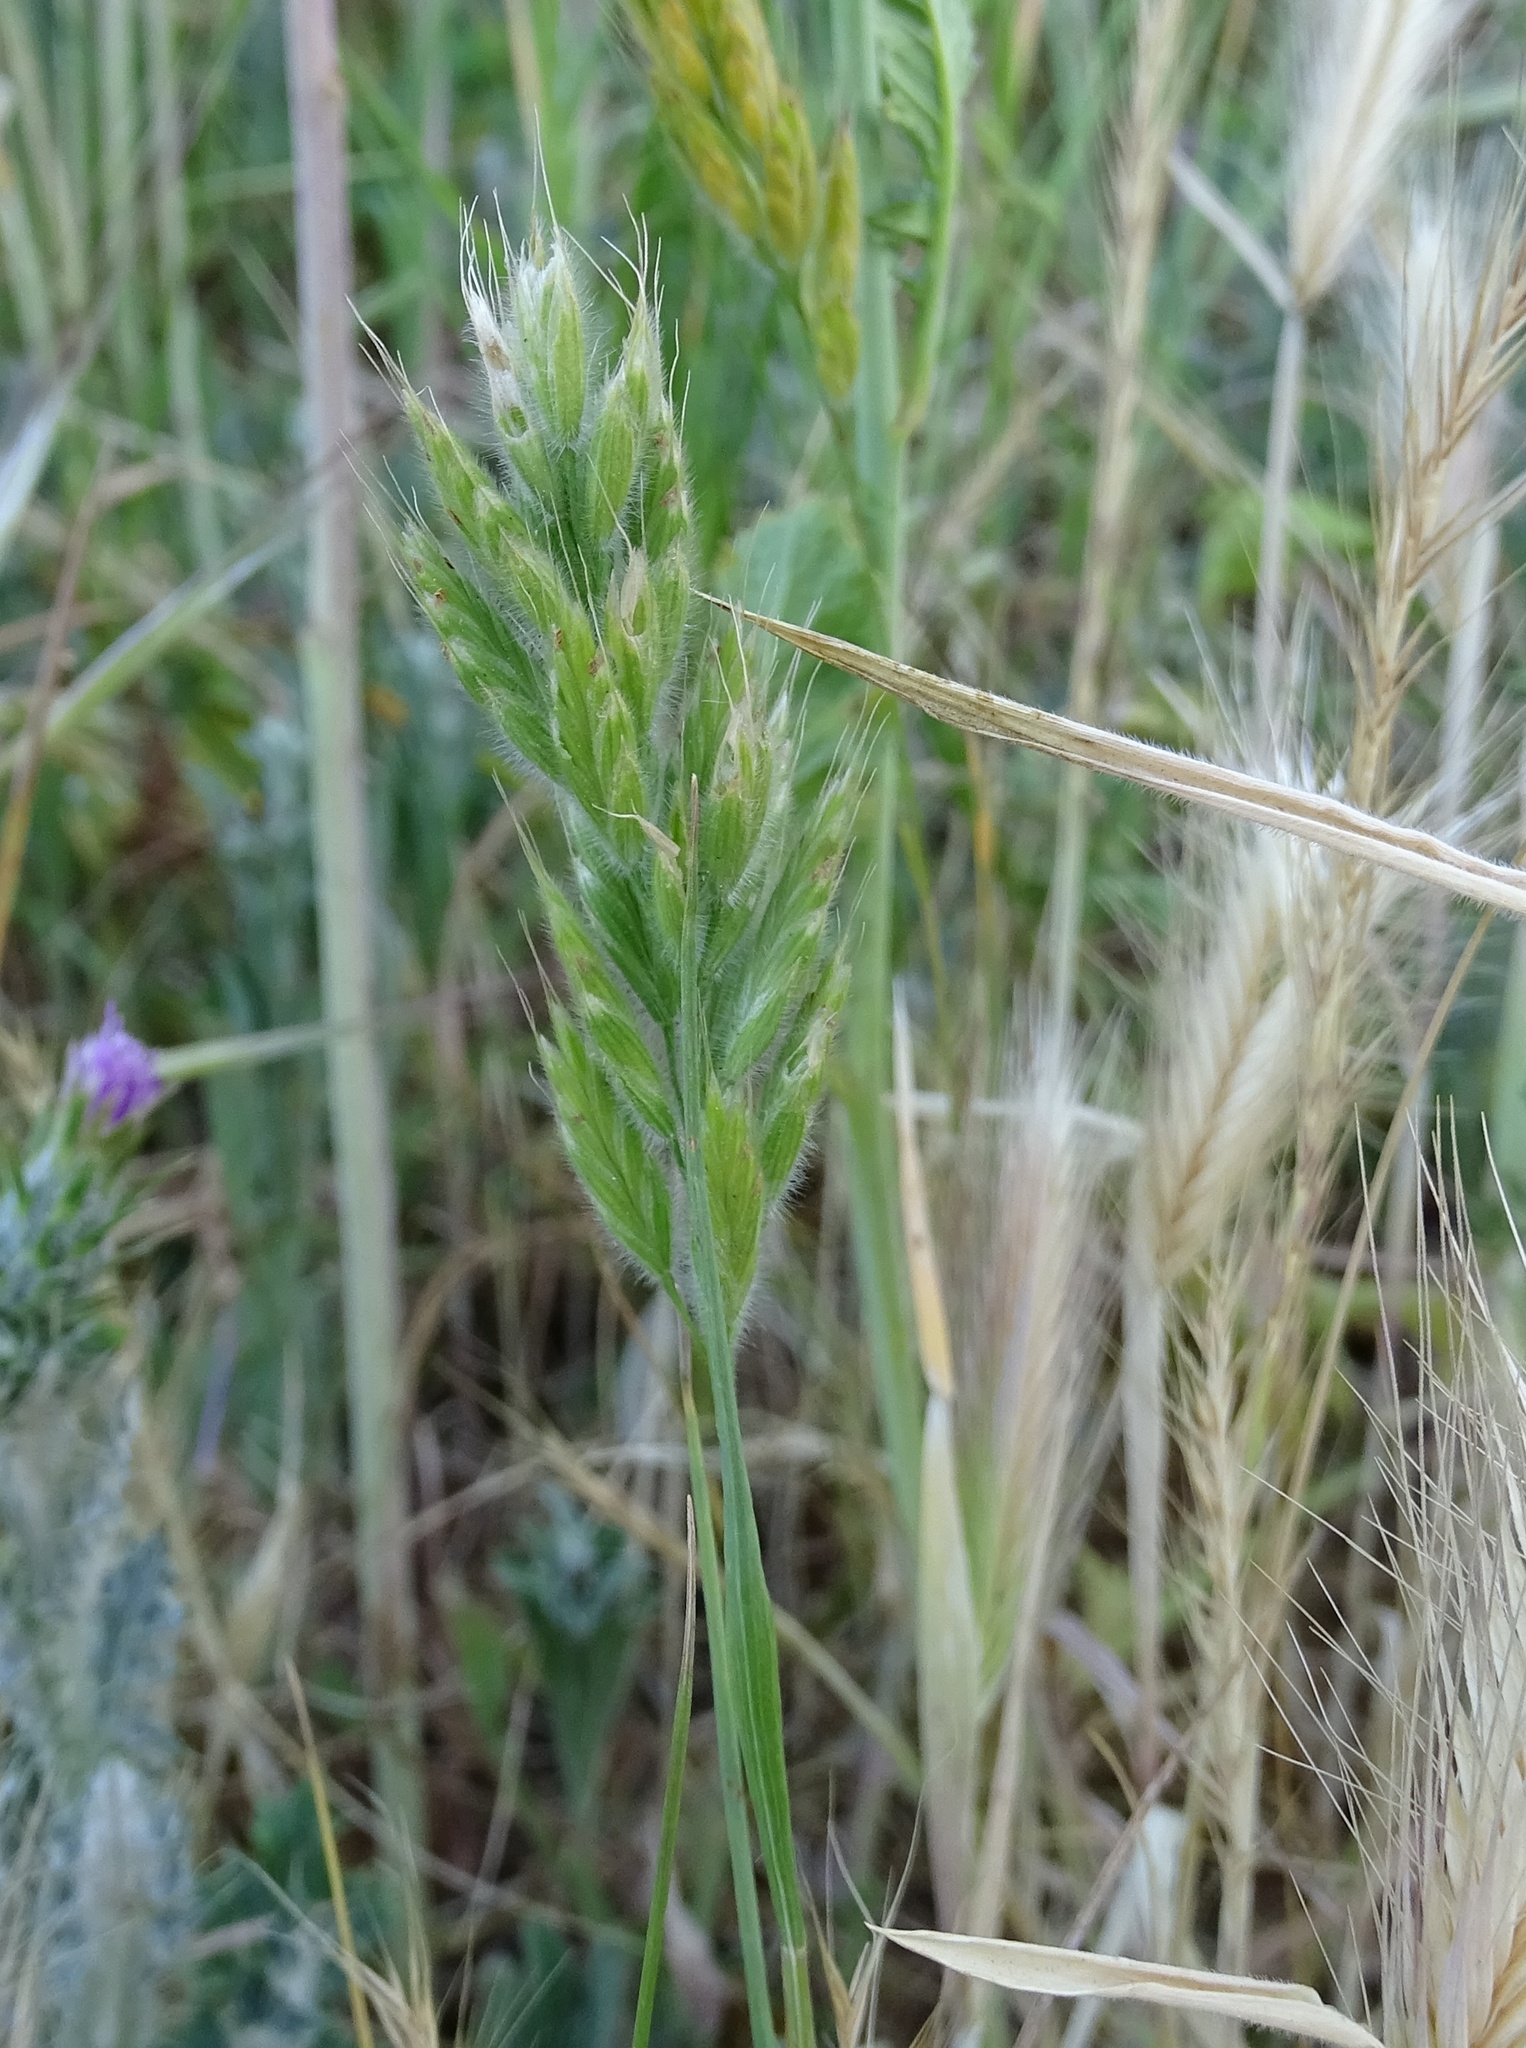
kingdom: Plantae
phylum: Tracheophyta
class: Liliopsida
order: Poales
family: Poaceae
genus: Bromus
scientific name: Bromus hordeaceus
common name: Soft brome
